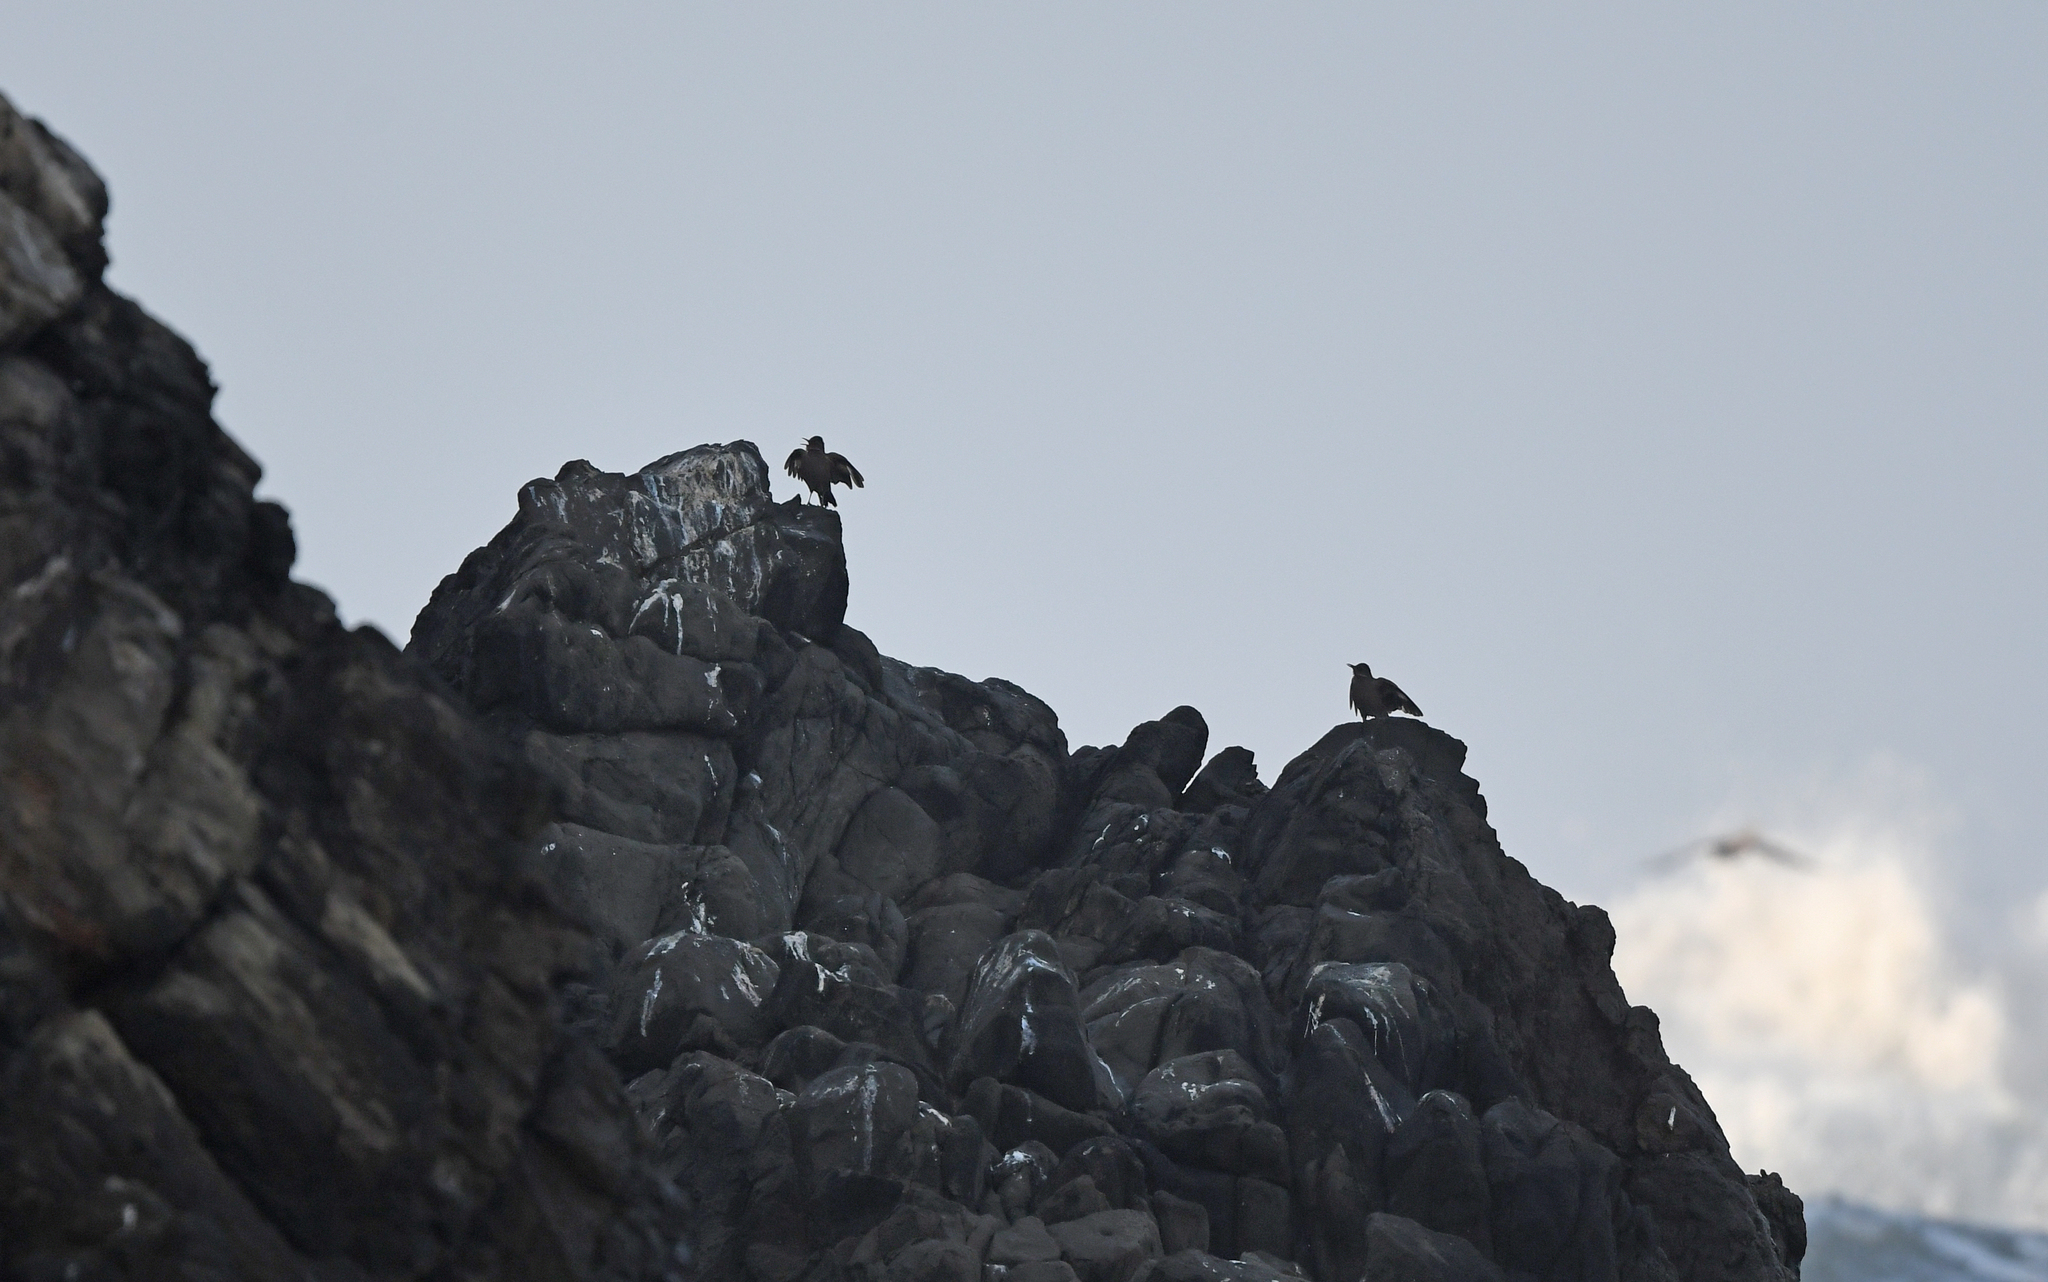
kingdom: Animalia
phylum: Chordata
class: Aves
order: Passeriformes
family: Furnariidae
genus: Cinclodes
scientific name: Cinclodes taczanowskii
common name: Peruvian seaside cinclodes
